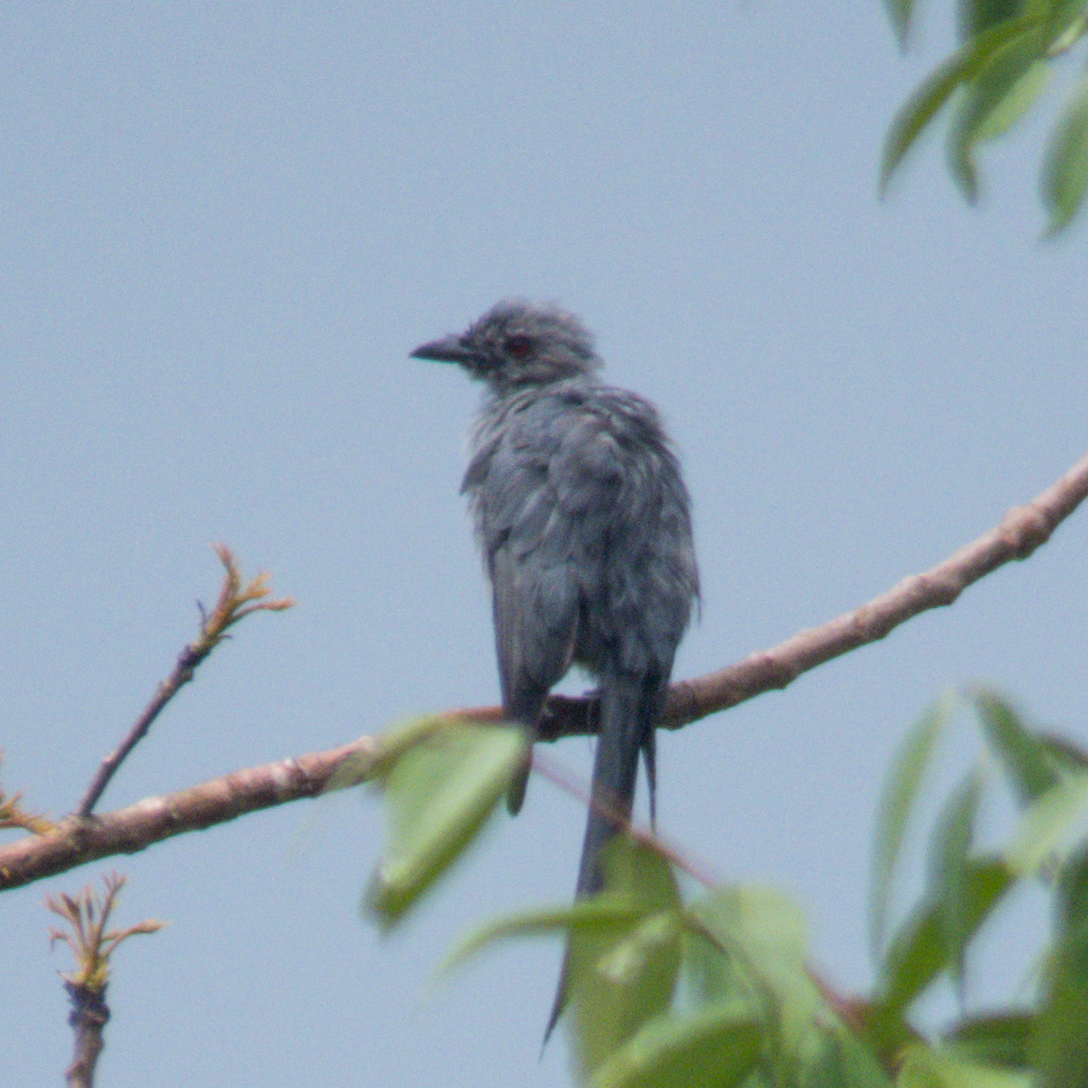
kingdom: Animalia
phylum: Chordata
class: Aves
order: Passeriformes
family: Dicruridae
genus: Dicrurus
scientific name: Dicrurus leucophaeus
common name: Ashy drongo
